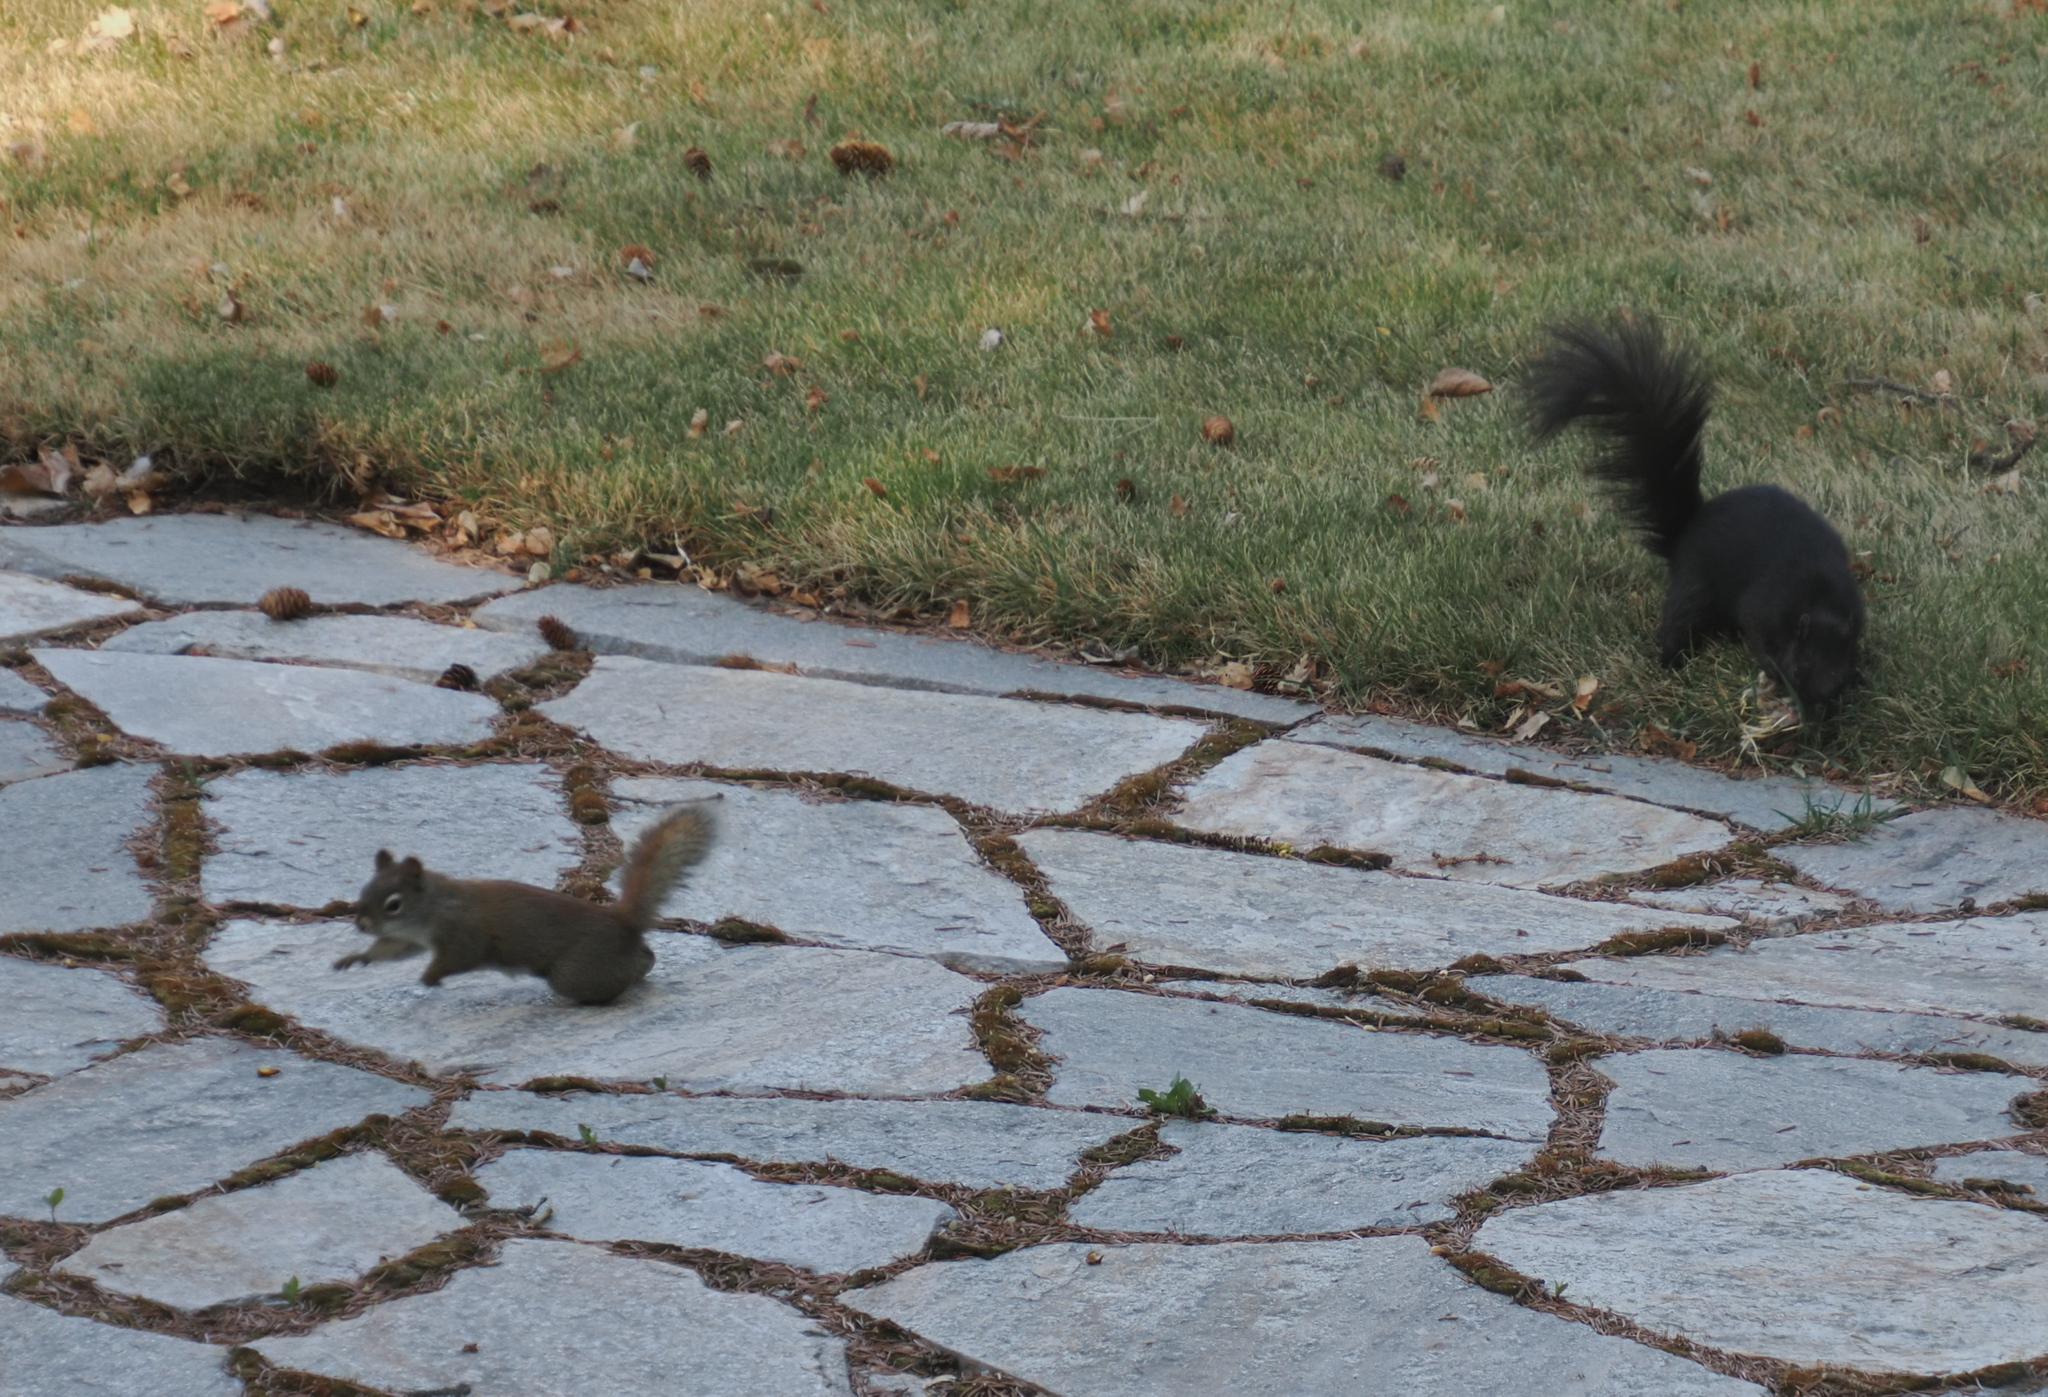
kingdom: Animalia
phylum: Chordata
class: Mammalia
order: Rodentia
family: Sciuridae
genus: Sciurus
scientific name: Sciurus carolinensis
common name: Eastern gray squirrel
